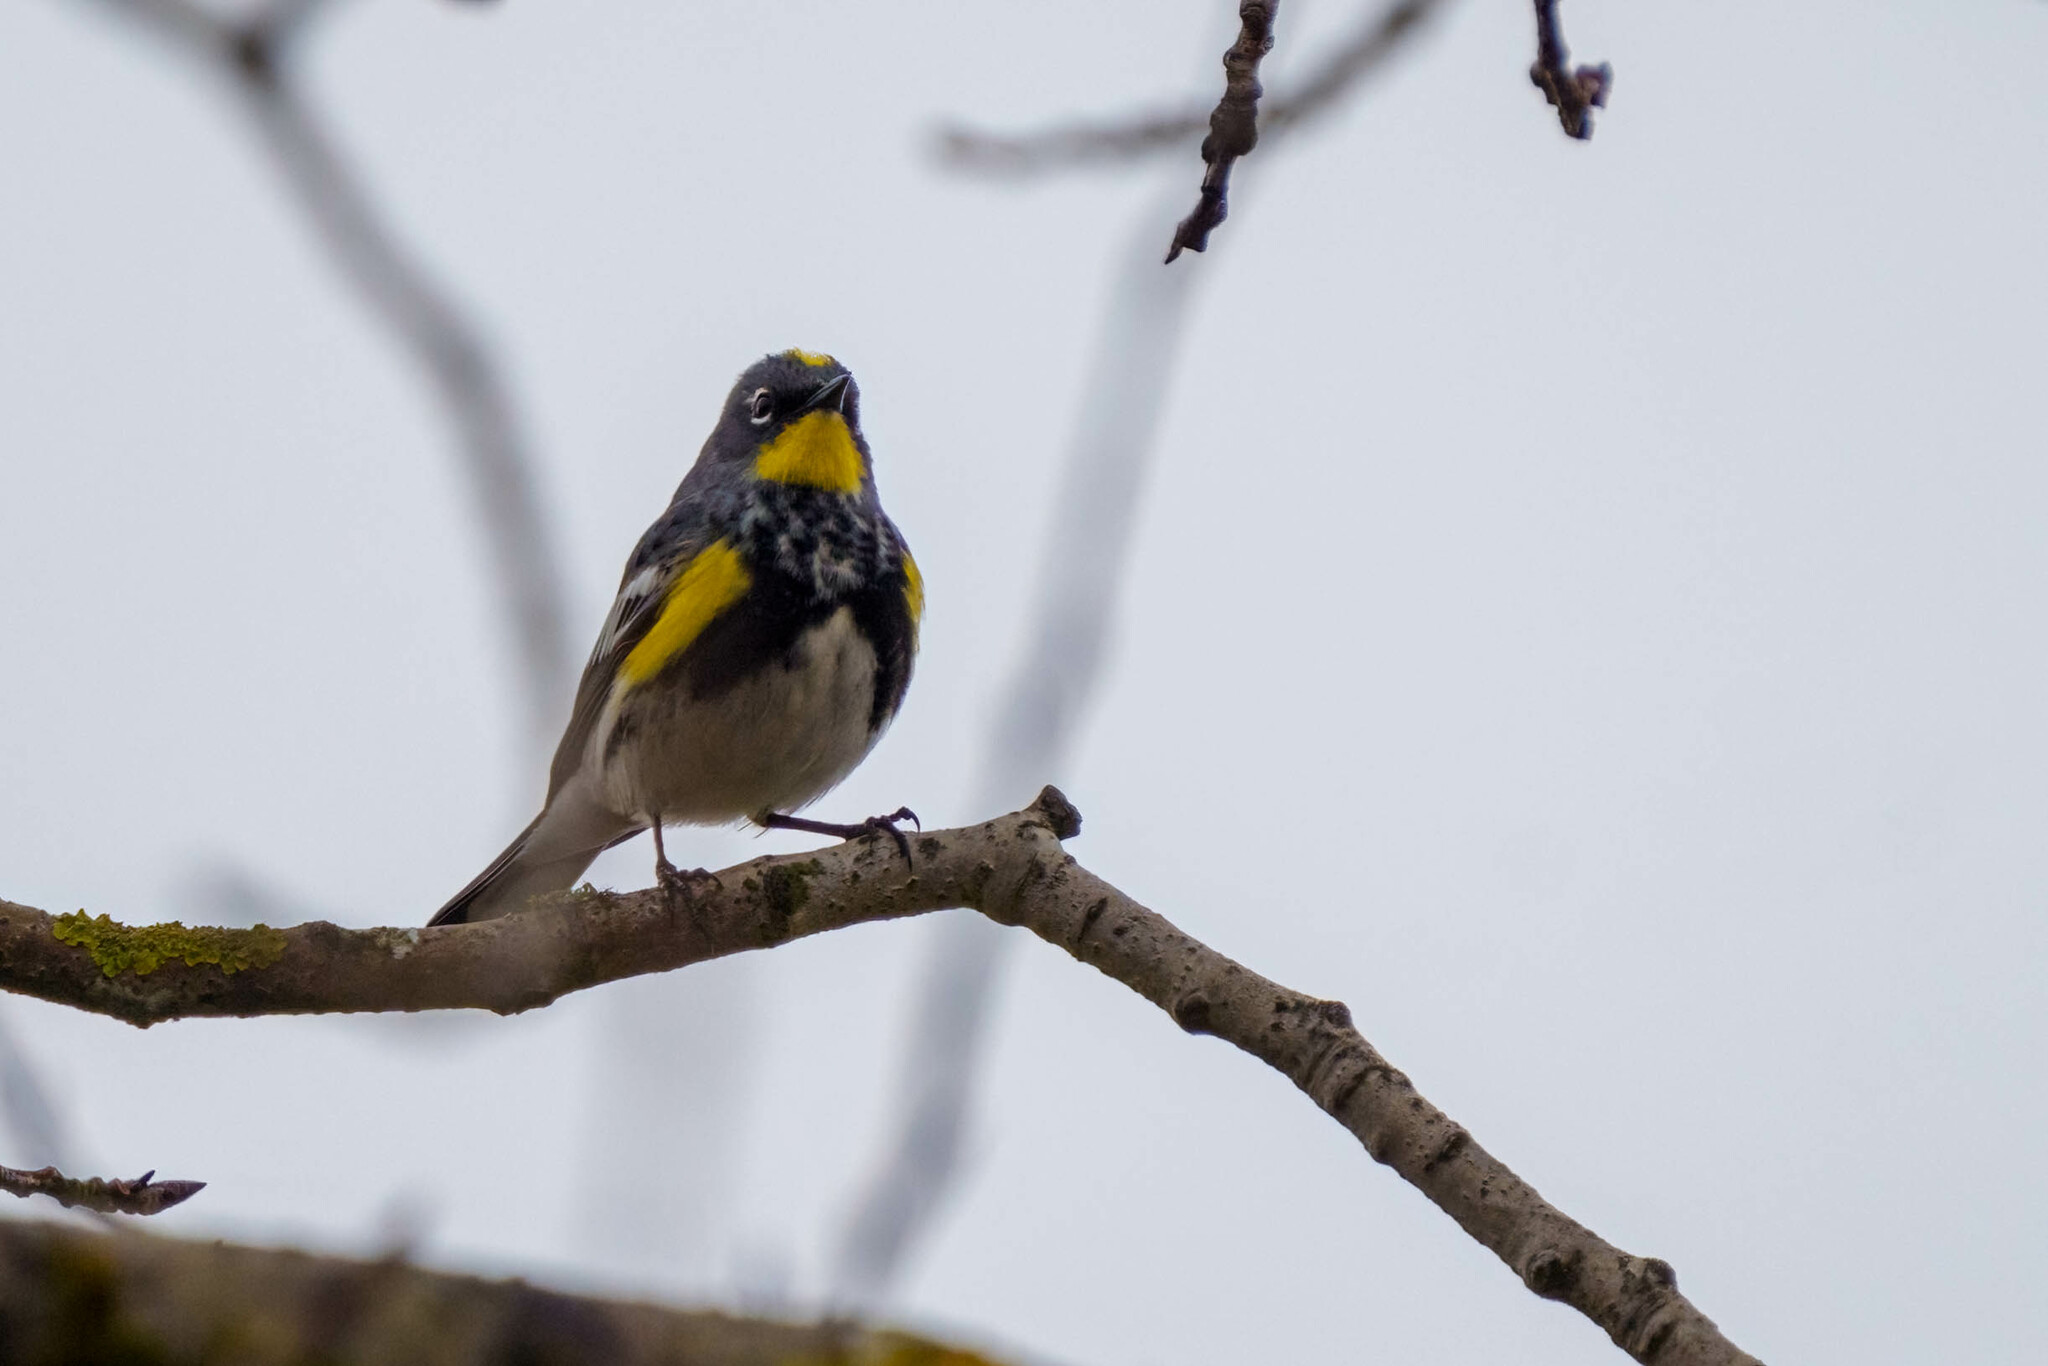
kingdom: Animalia
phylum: Chordata
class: Aves
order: Passeriformes
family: Parulidae
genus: Setophaga
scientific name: Setophaga auduboni
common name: Audubon's warbler
